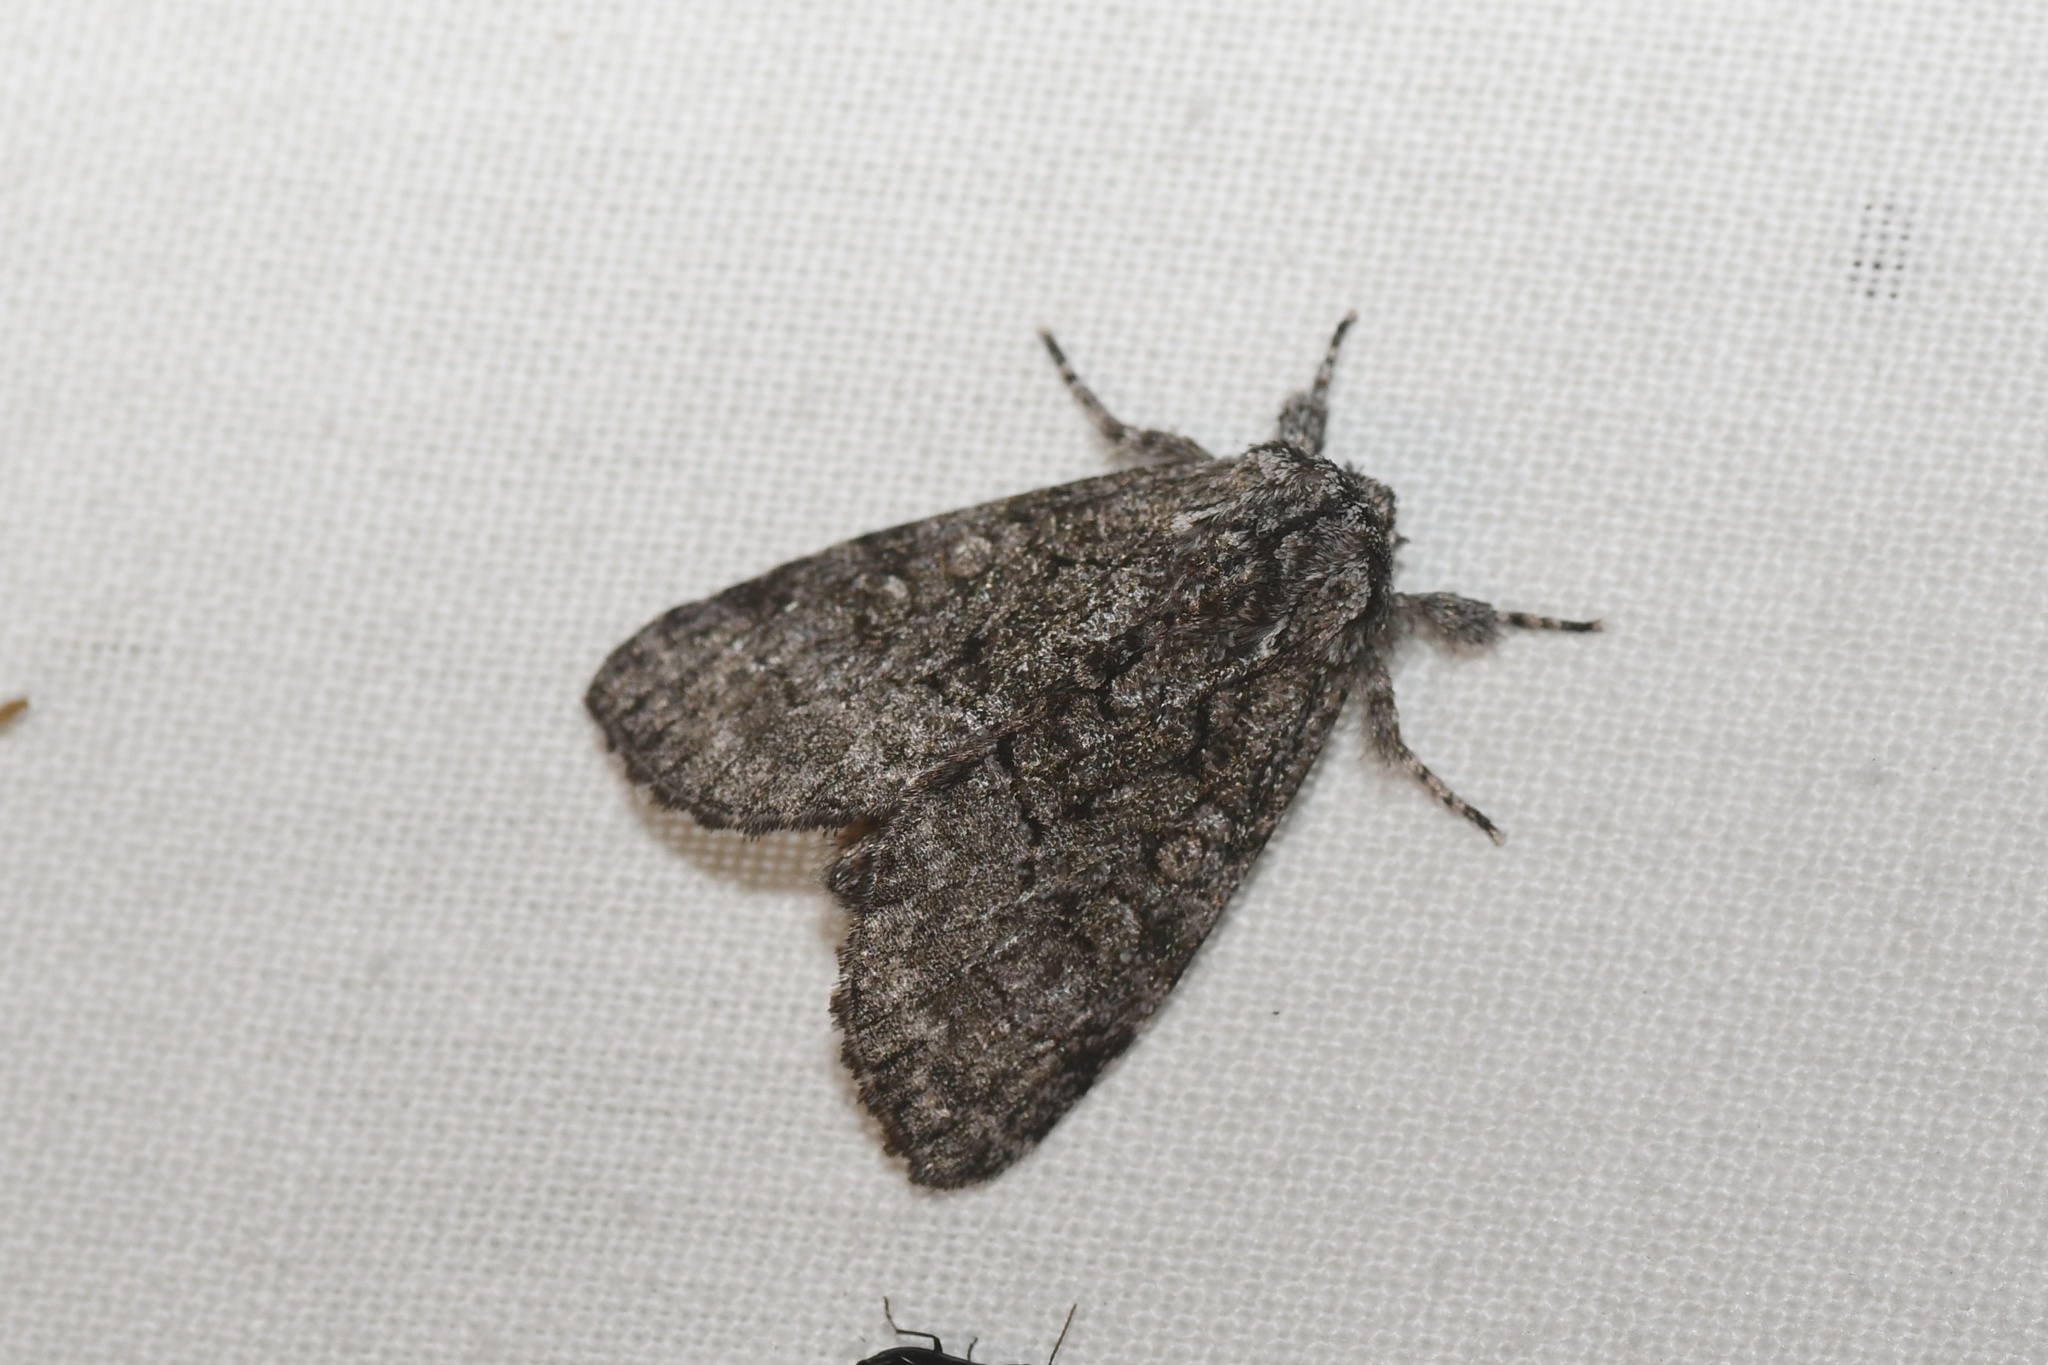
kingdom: Animalia
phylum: Arthropoda
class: Insecta
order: Lepidoptera
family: Noctuidae
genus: Raphia
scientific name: Raphia frater
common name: Brother
